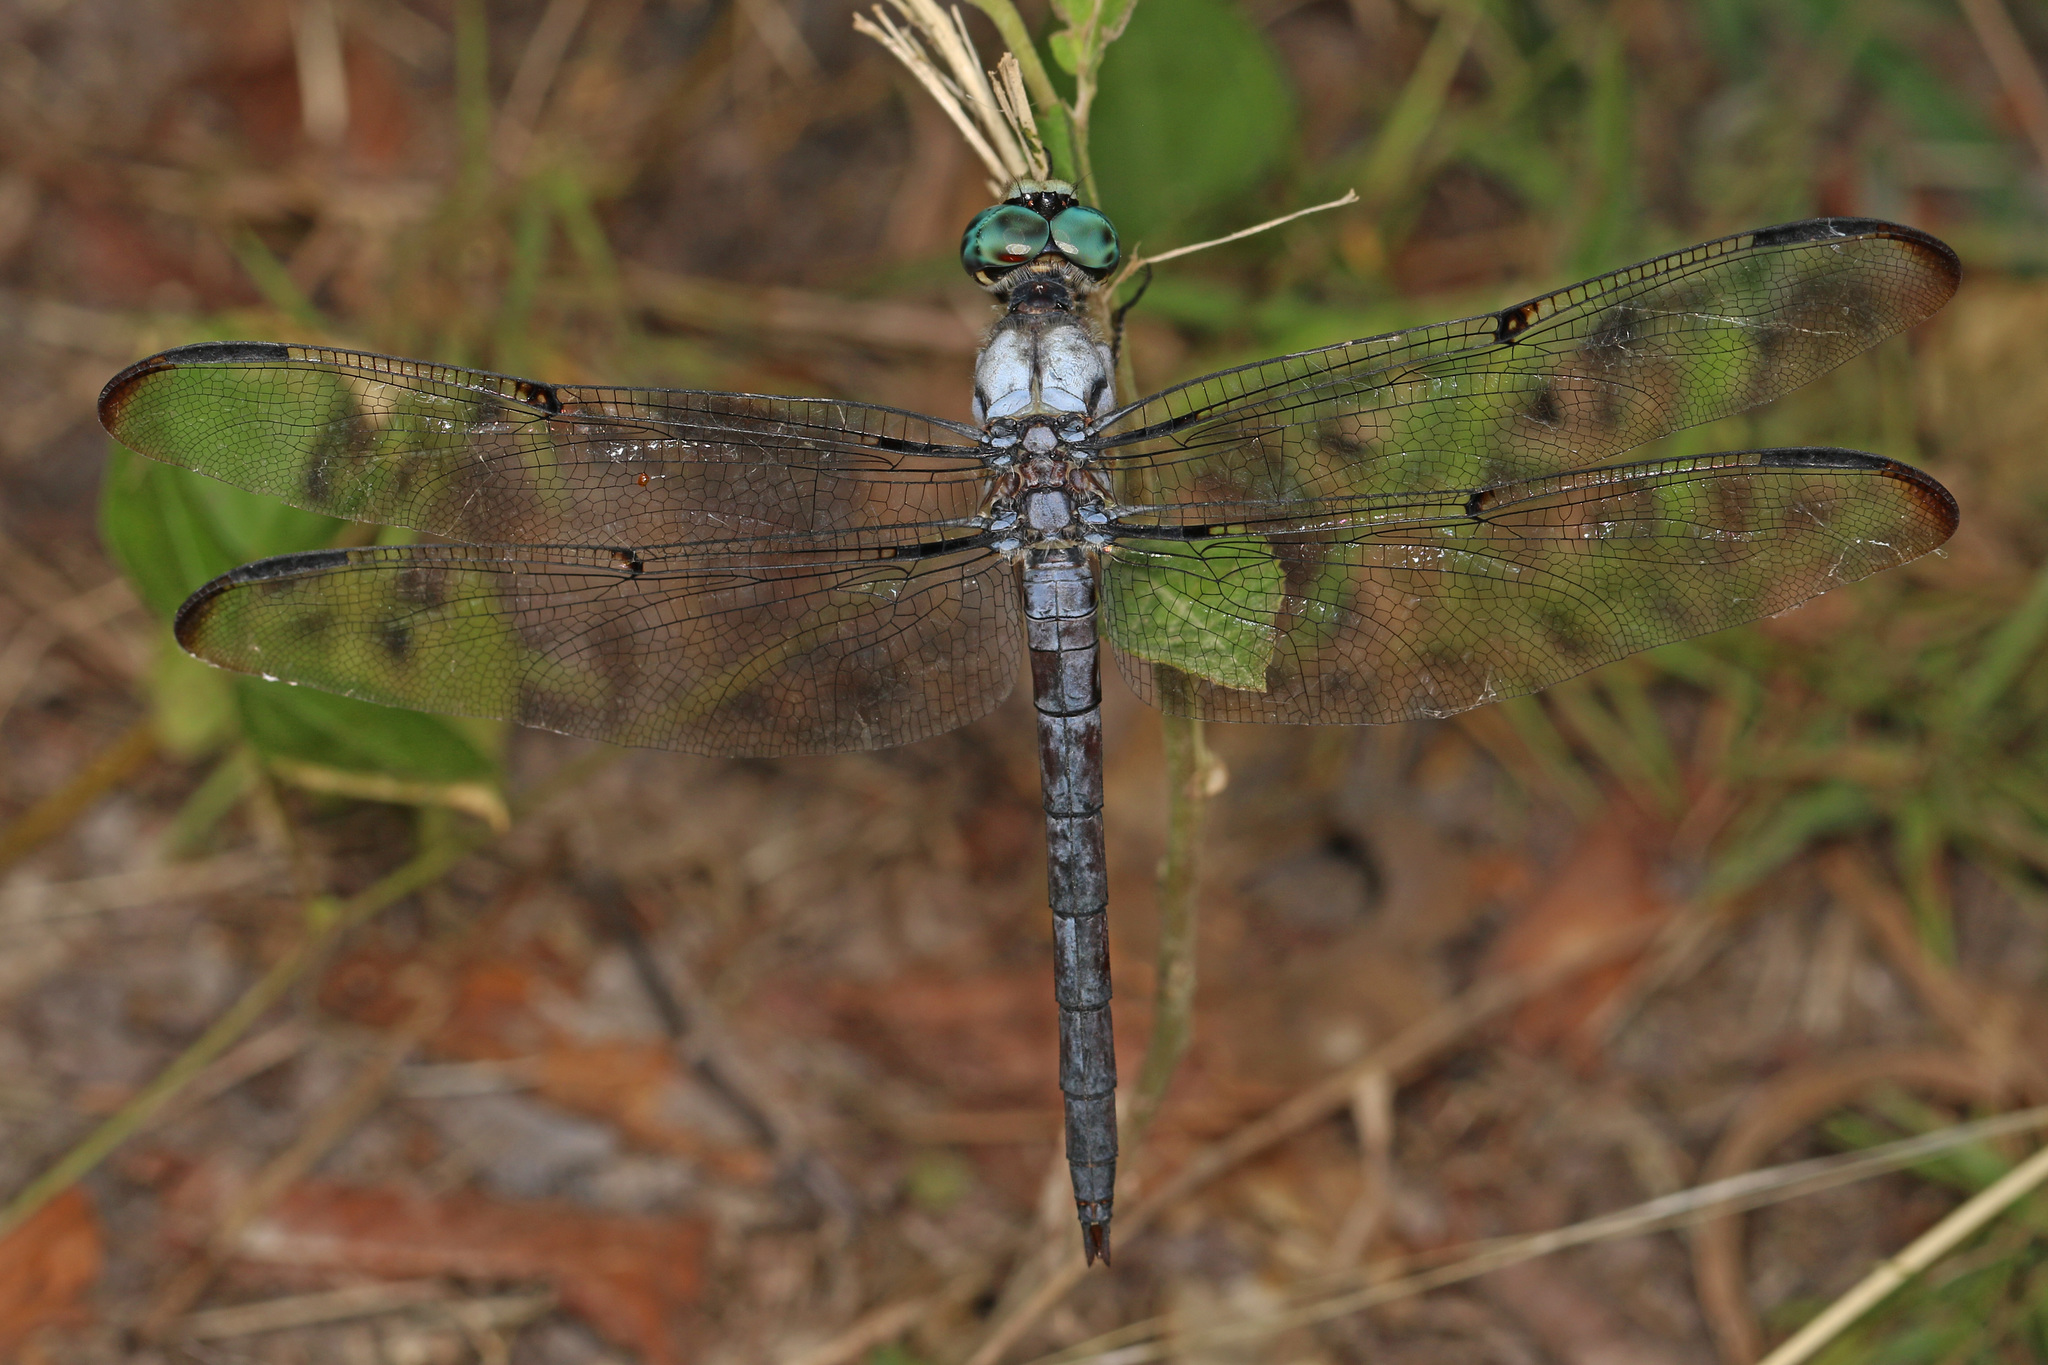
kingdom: Animalia
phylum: Arthropoda
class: Insecta
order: Odonata
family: Libellulidae
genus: Libellula
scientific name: Libellula vibrans
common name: Great blue skimmer
